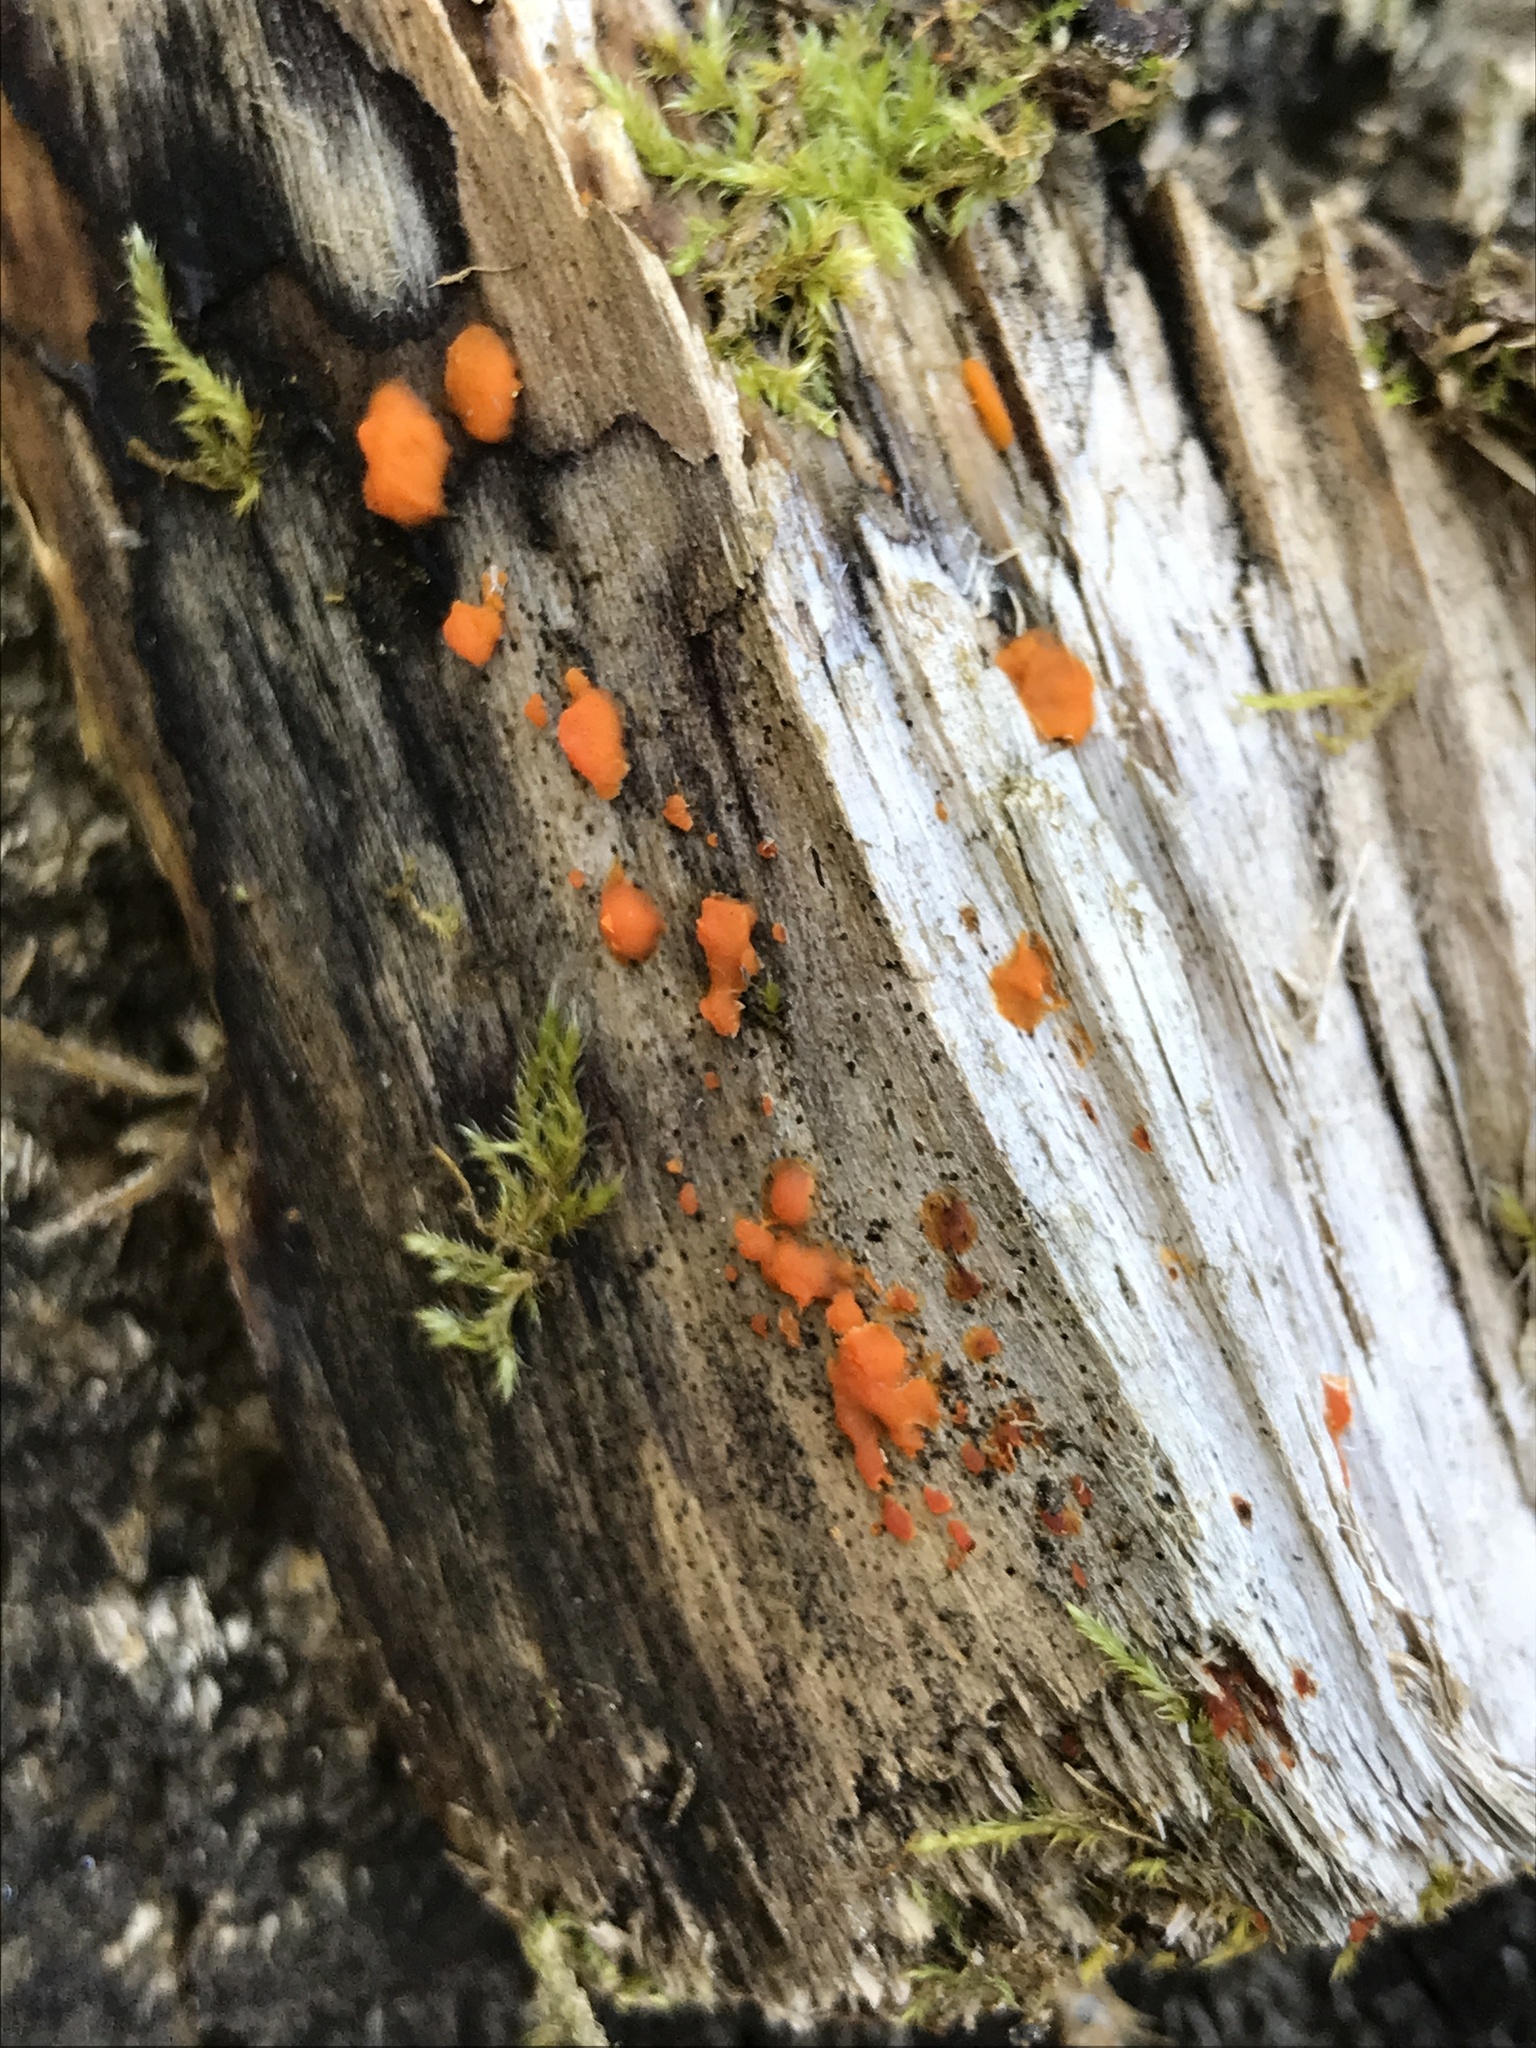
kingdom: Fungi
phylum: Basidiomycota
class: Dacrymycetes
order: Dacrymycetales
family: Dacrymycetaceae
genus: Dacrymyces
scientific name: Dacrymyces stillatus
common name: Common jelly spot
